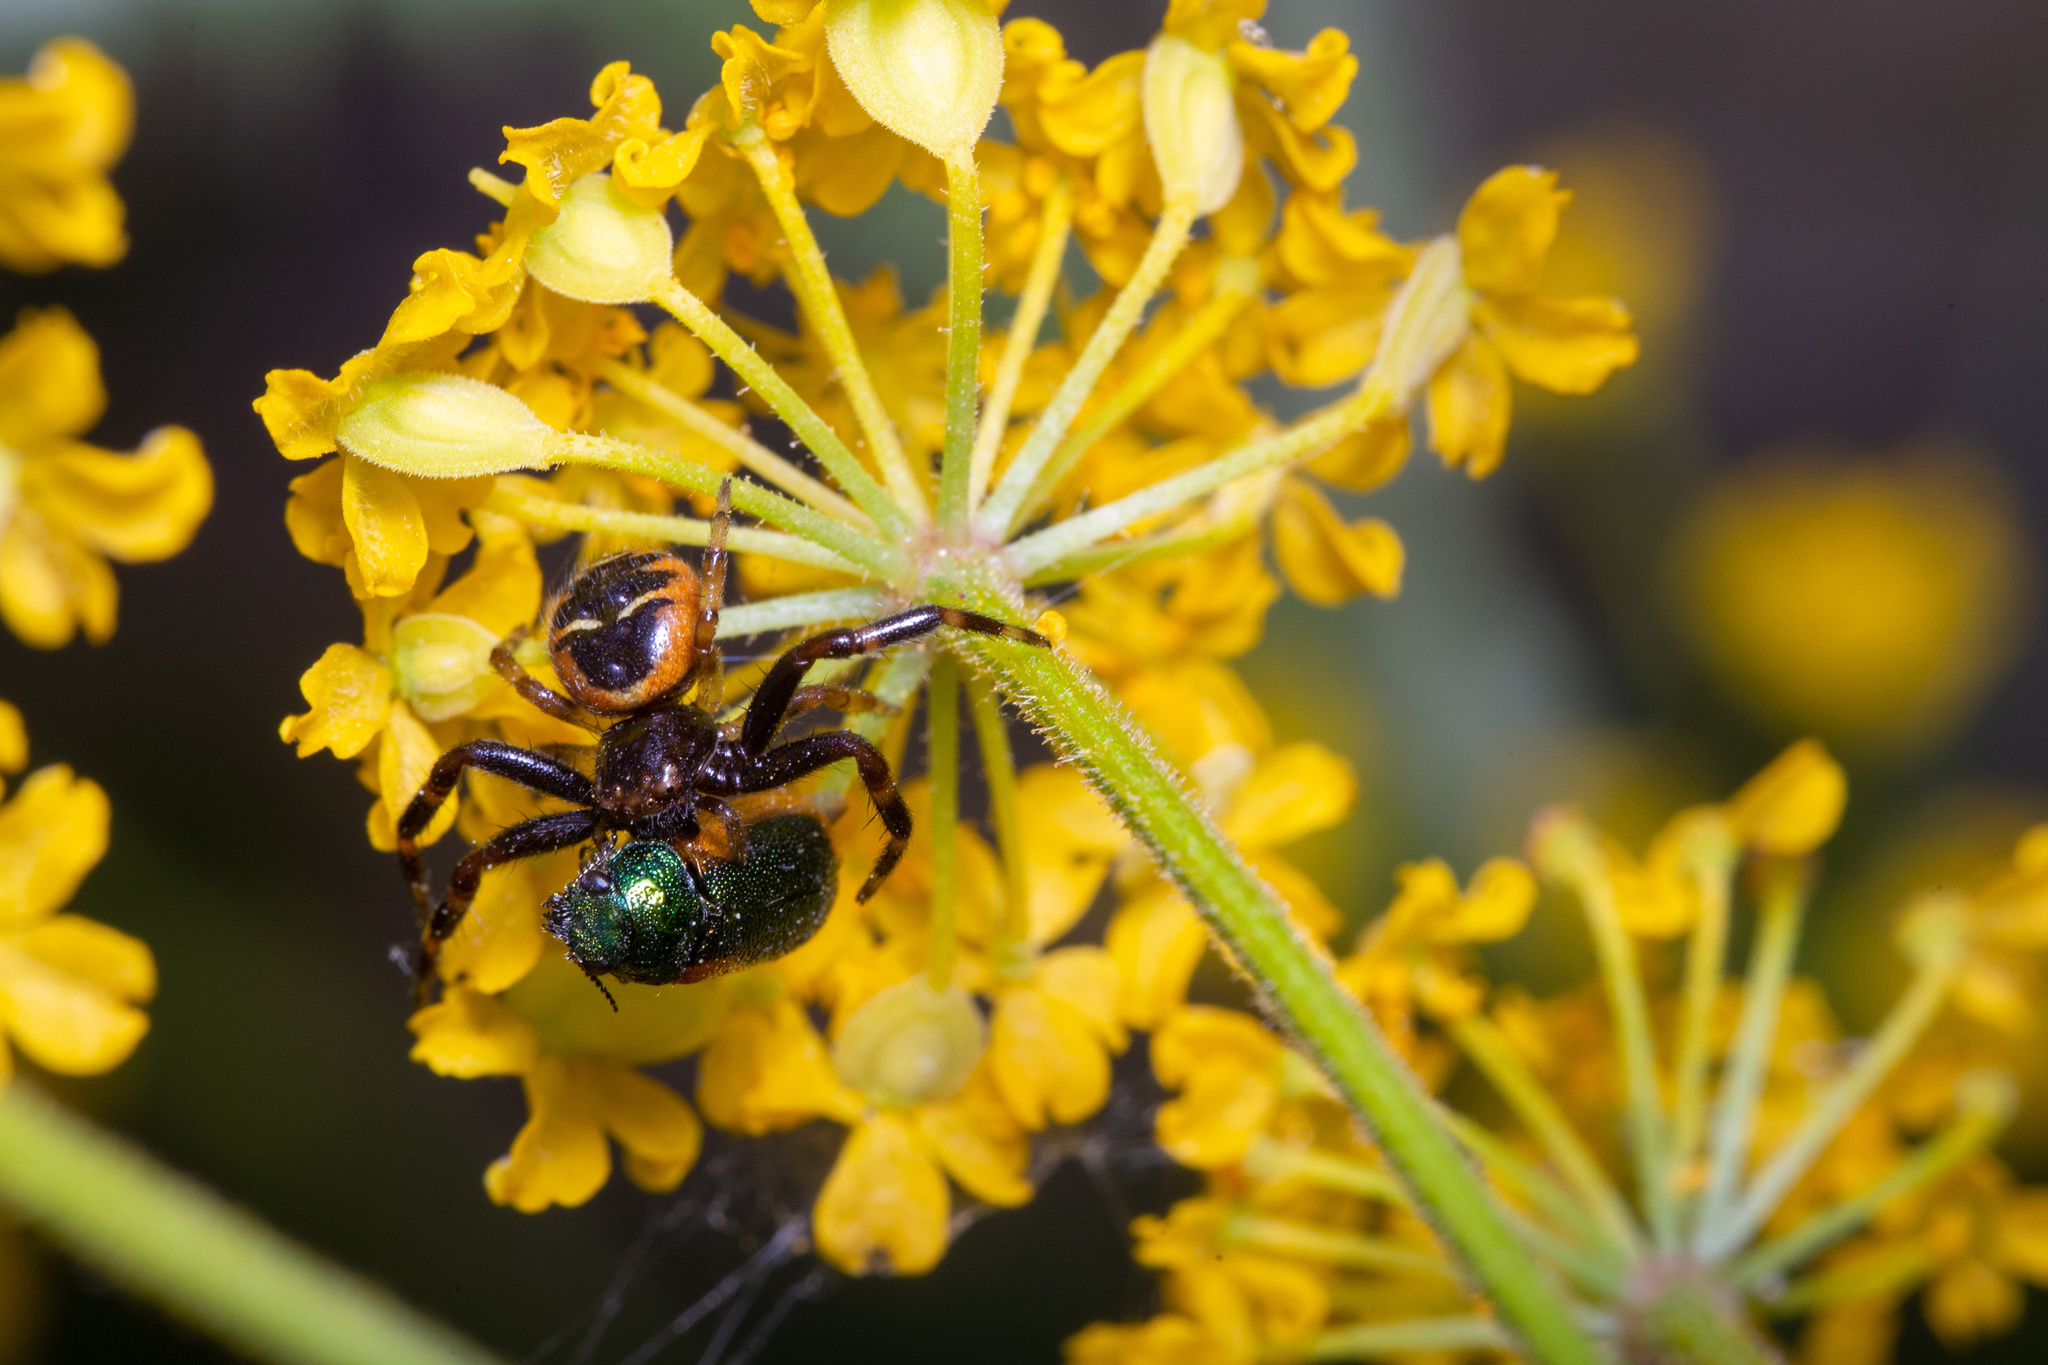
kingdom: Animalia
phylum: Arthropoda
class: Arachnida
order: Araneae
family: Thomisidae
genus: Synema
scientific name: Synema
